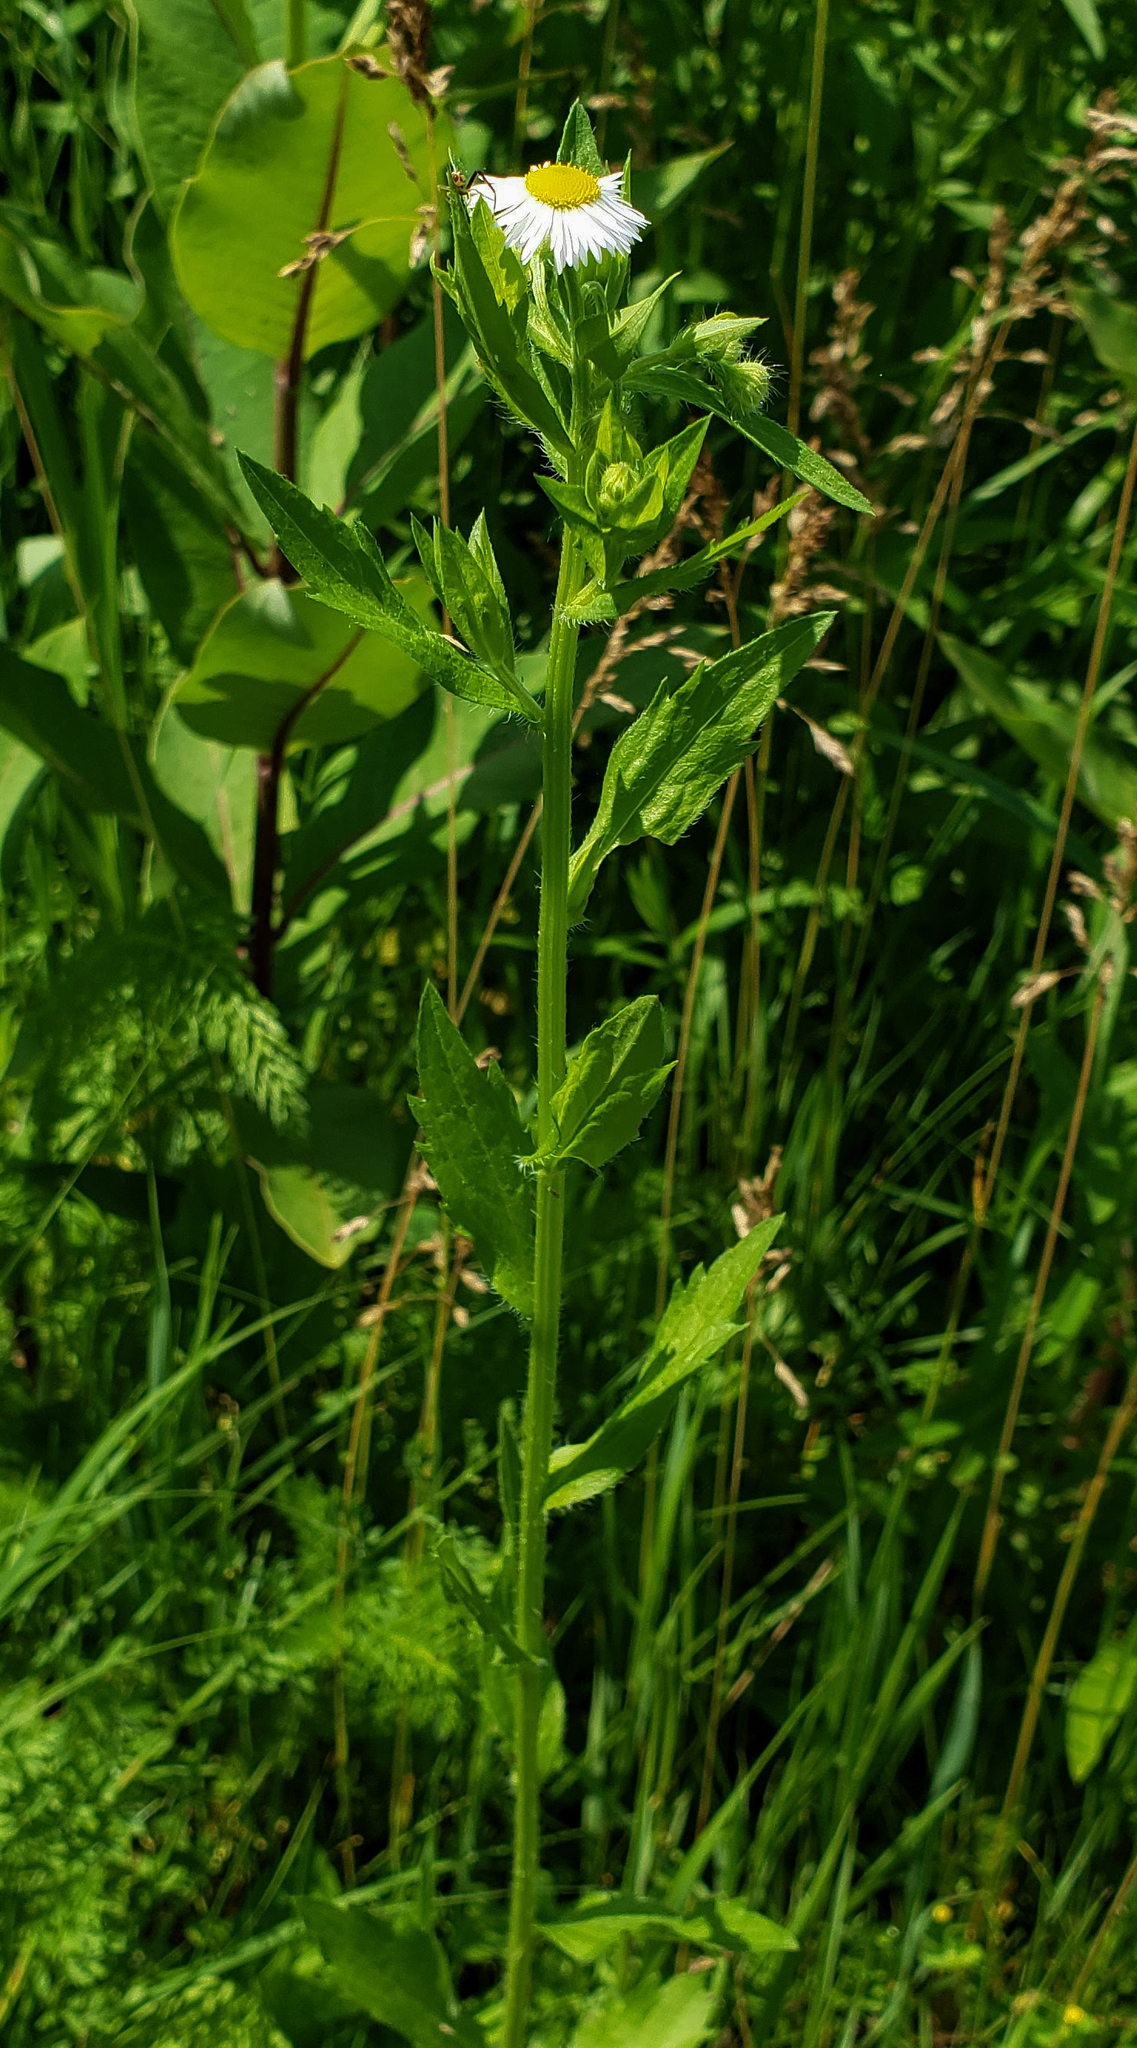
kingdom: Plantae
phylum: Tracheophyta
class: Magnoliopsida
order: Asterales
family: Asteraceae
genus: Erigeron
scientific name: Erigeron annuus
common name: Tall fleabane
